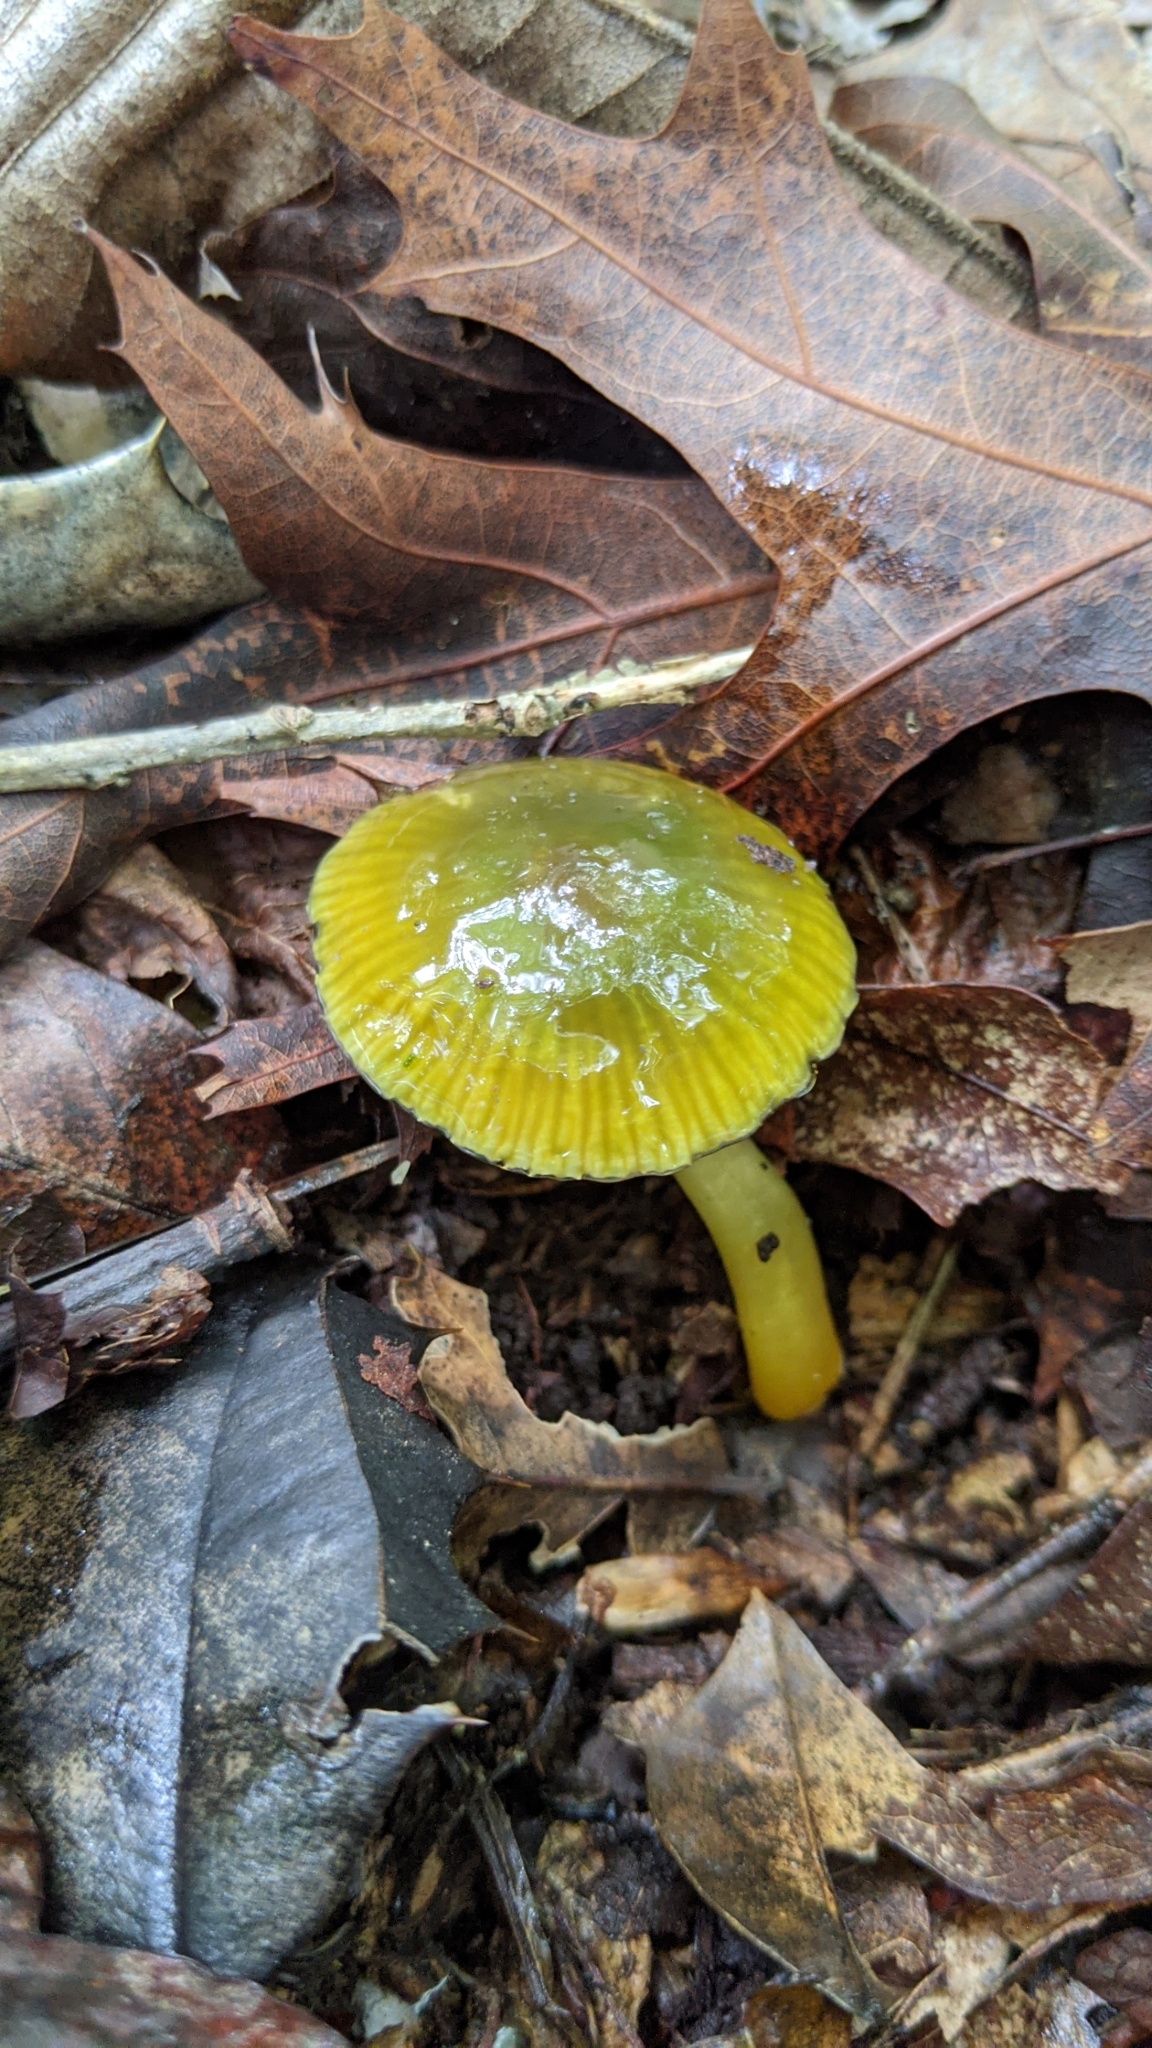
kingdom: Fungi
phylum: Basidiomycota
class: Agaricomycetes
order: Agaricales
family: Hygrophoraceae
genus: Gliophorus
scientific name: Gliophorus psittacinus
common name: Parrot wax-cap
